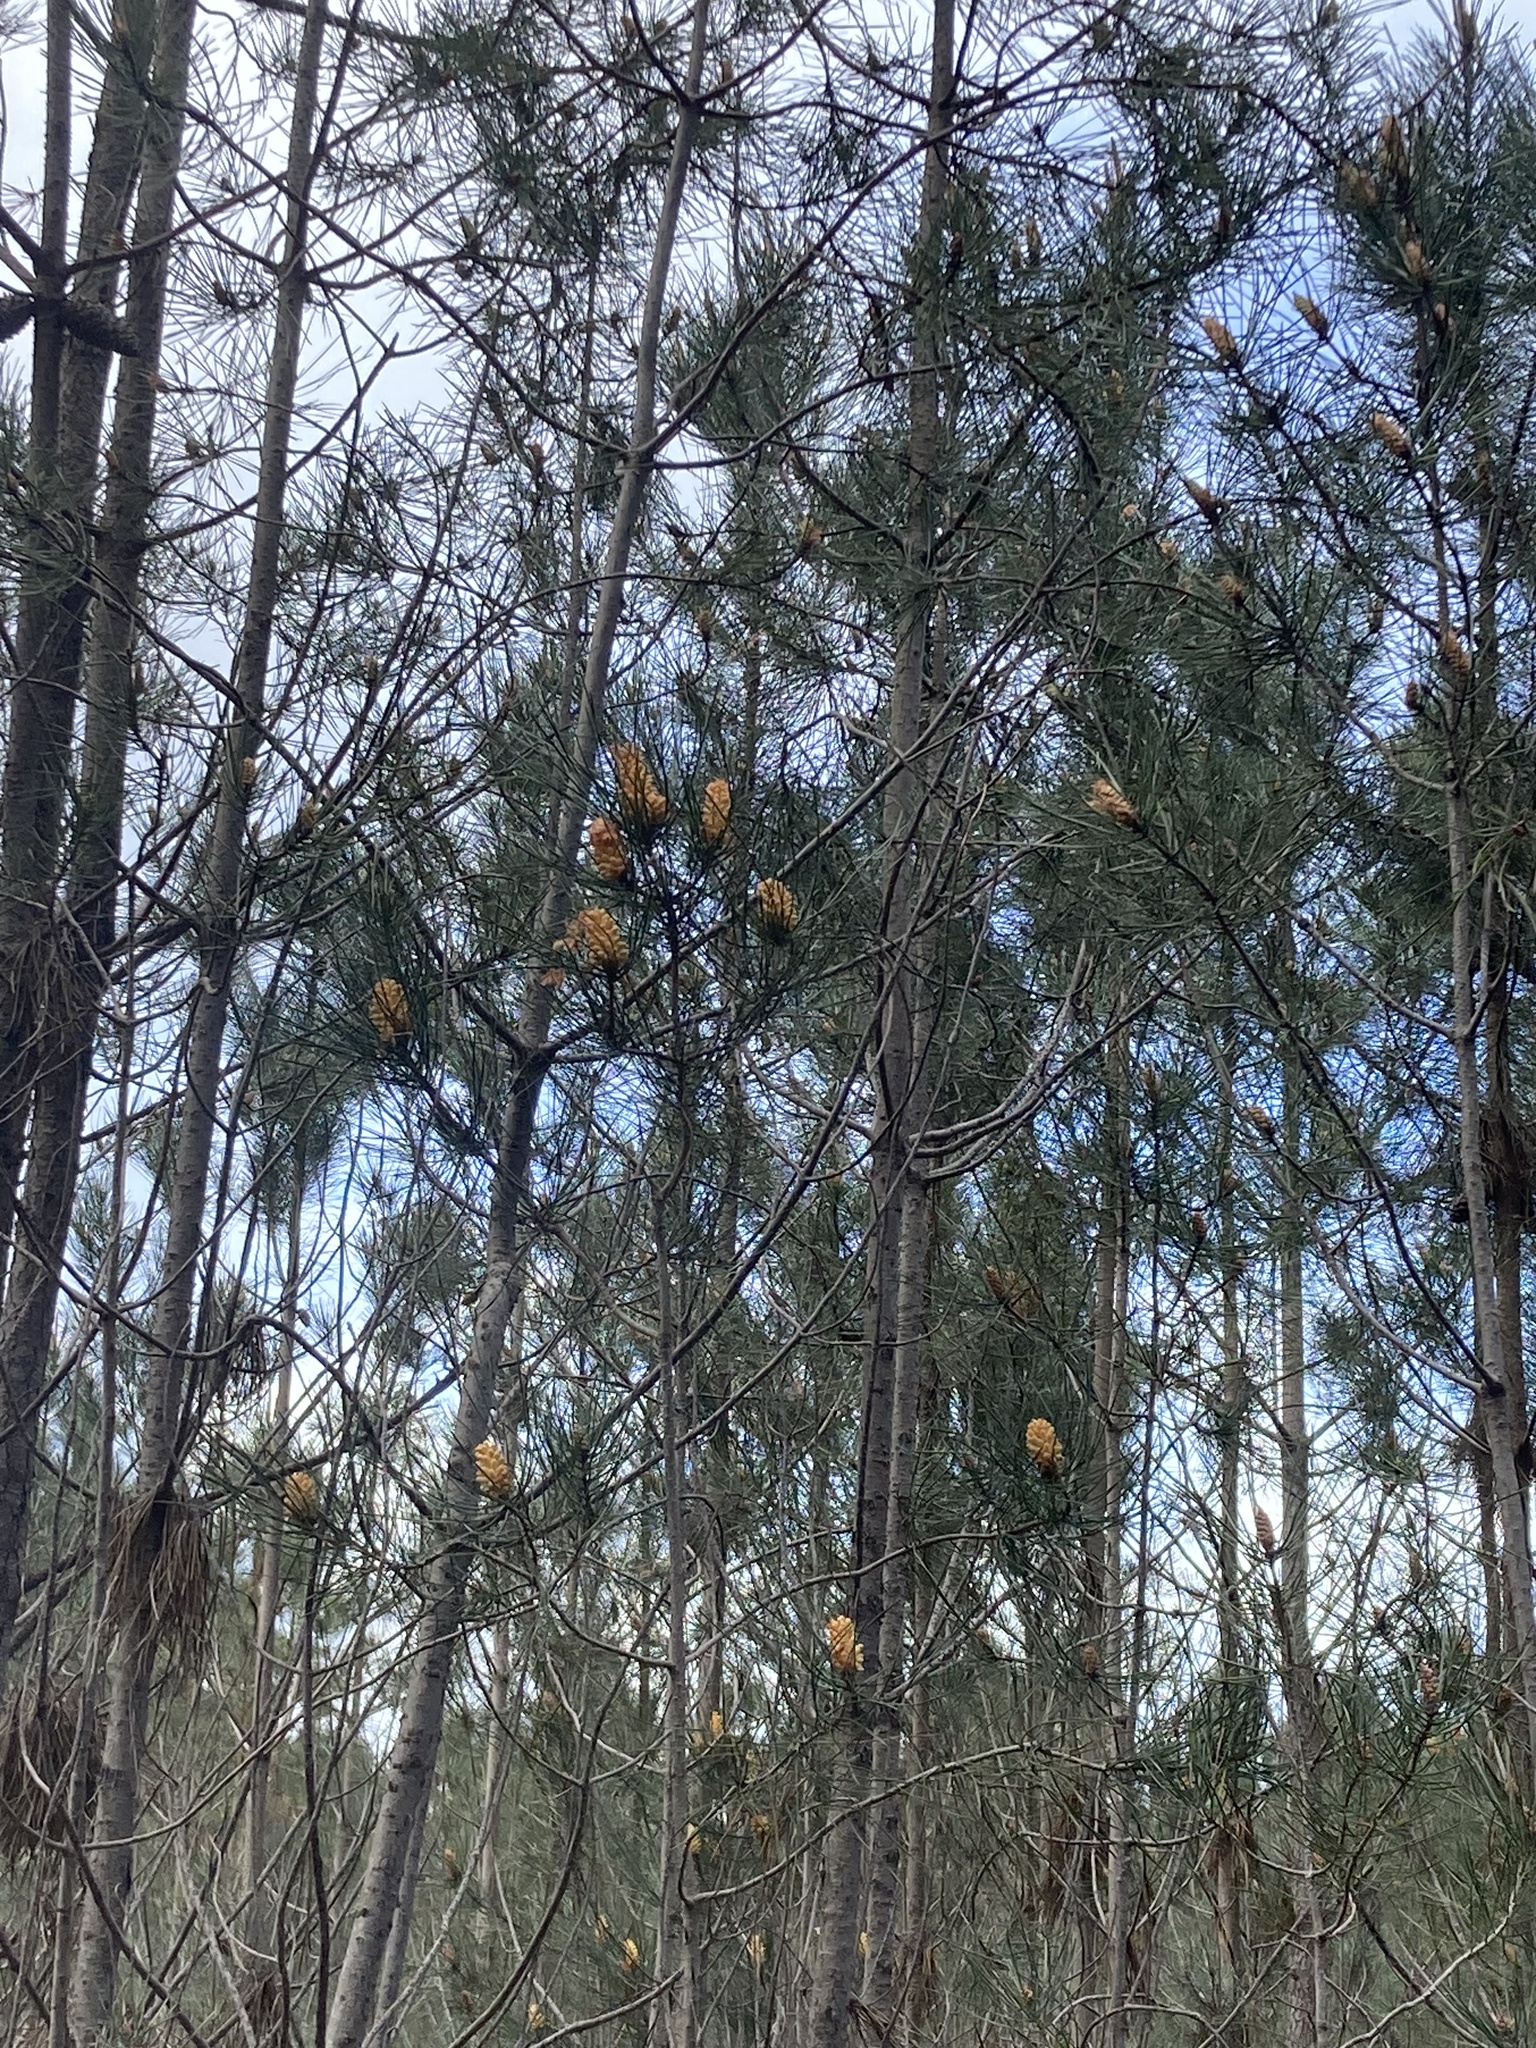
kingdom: Plantae
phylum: Tracheophyta
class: Pinopsida
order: Pinales
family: Pinaceae
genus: Pinus
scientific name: Pinus pinaster
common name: Maritime pine
